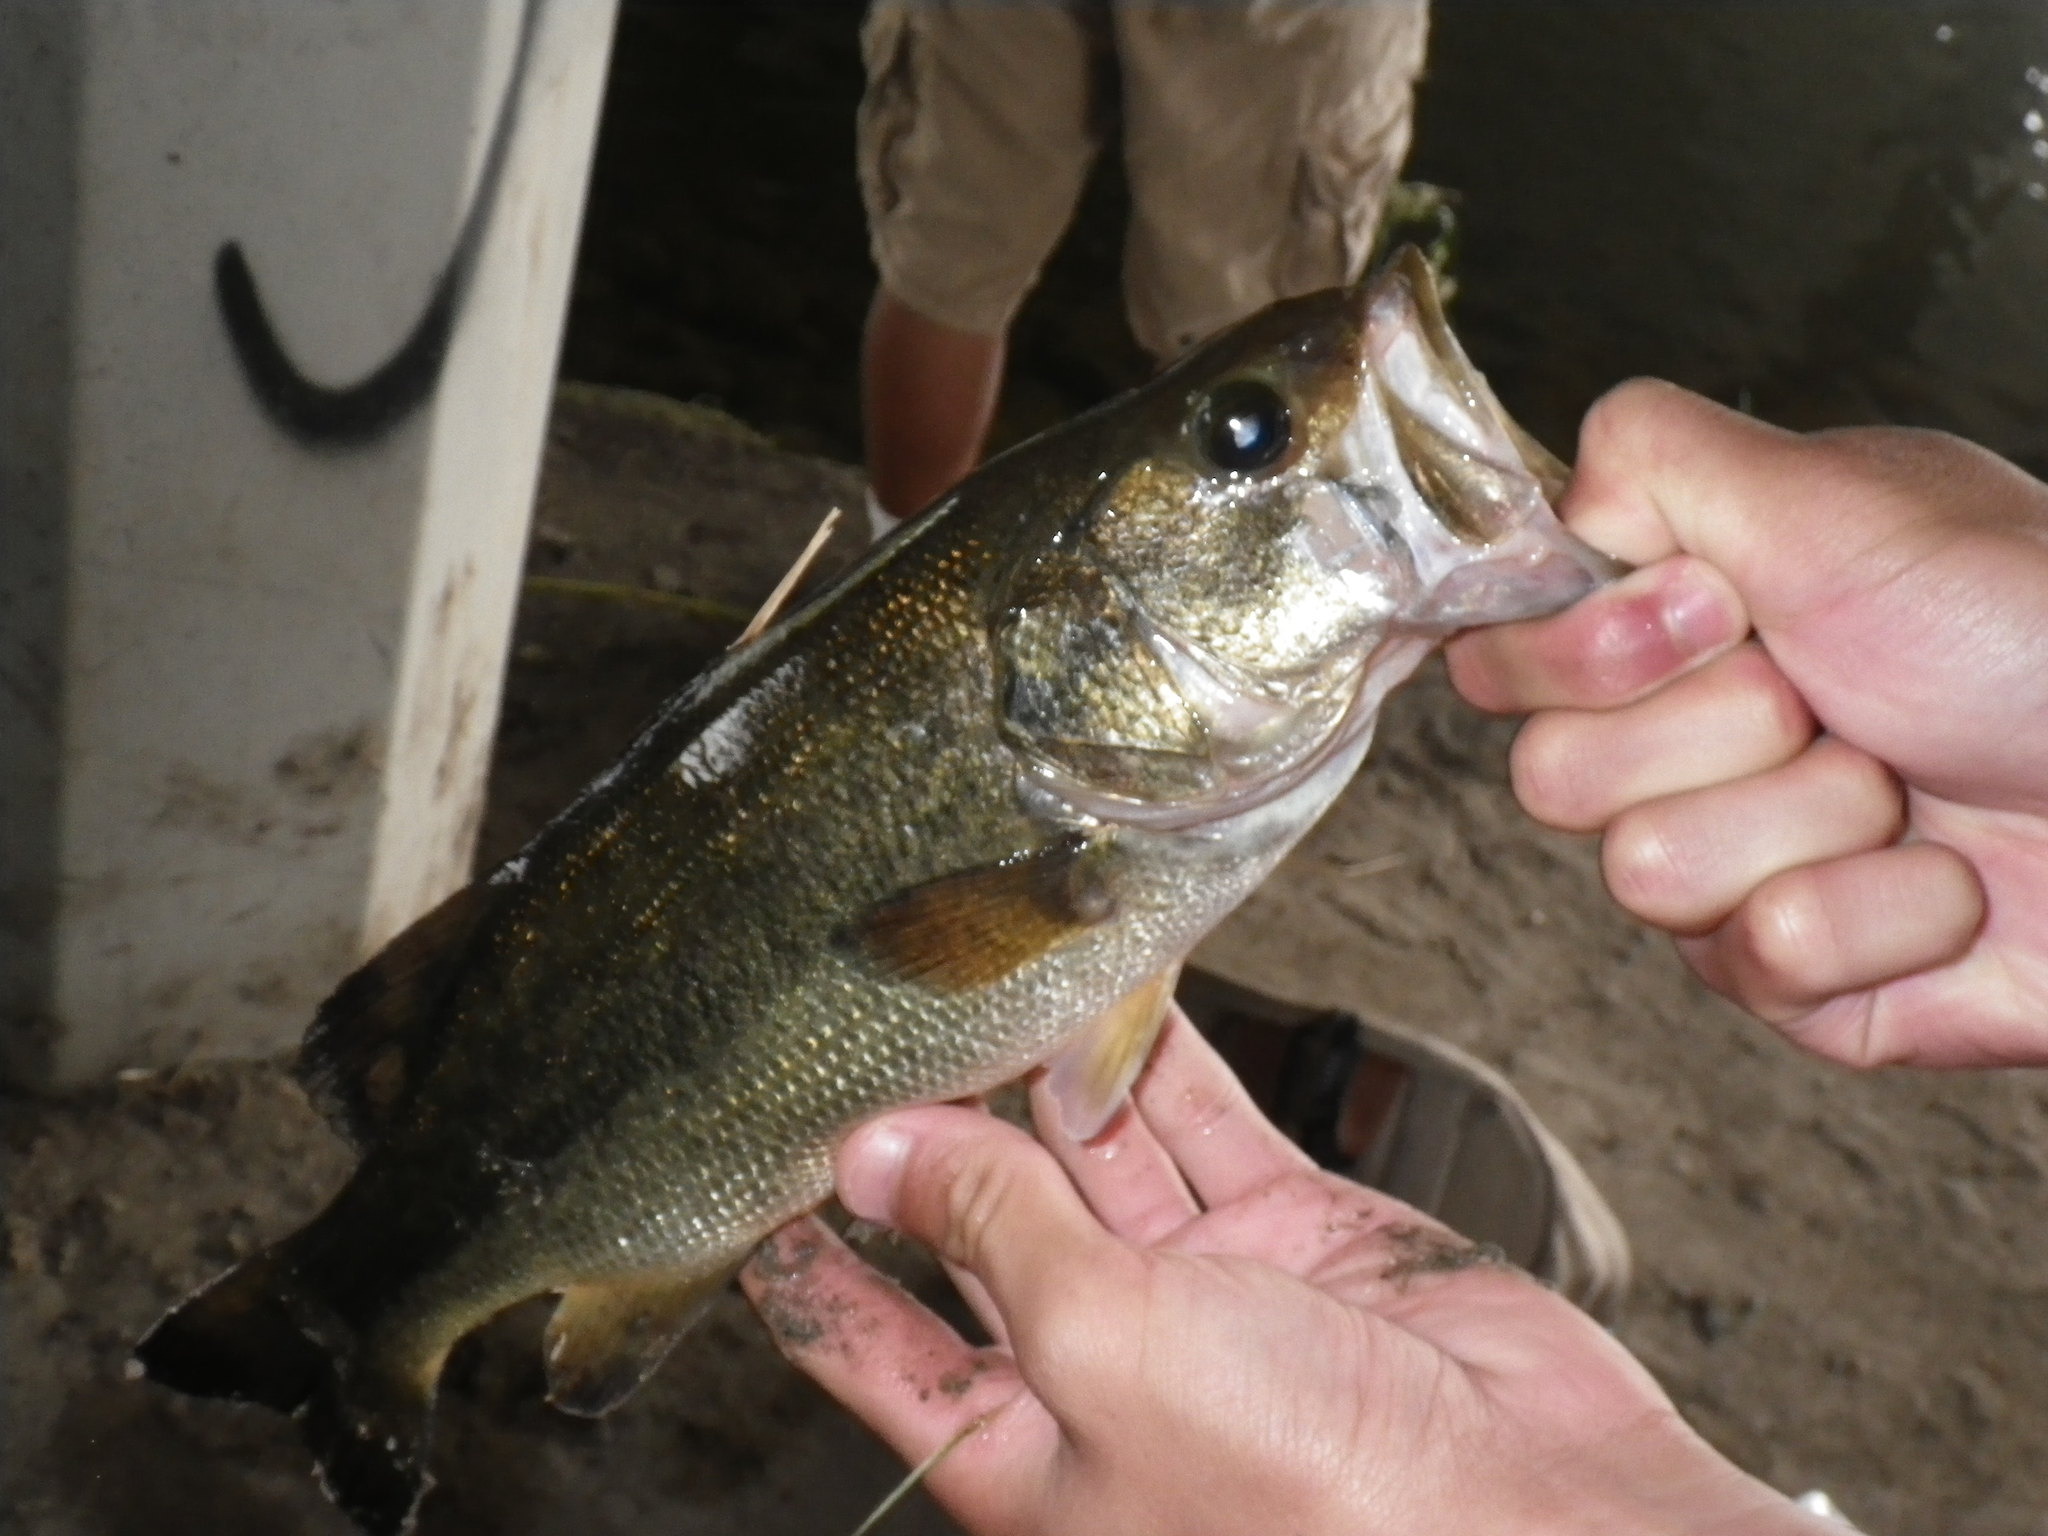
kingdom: Animalia
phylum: Chordata
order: Perciformes
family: Centrarchidae
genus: Micropterus
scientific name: Micropterus
